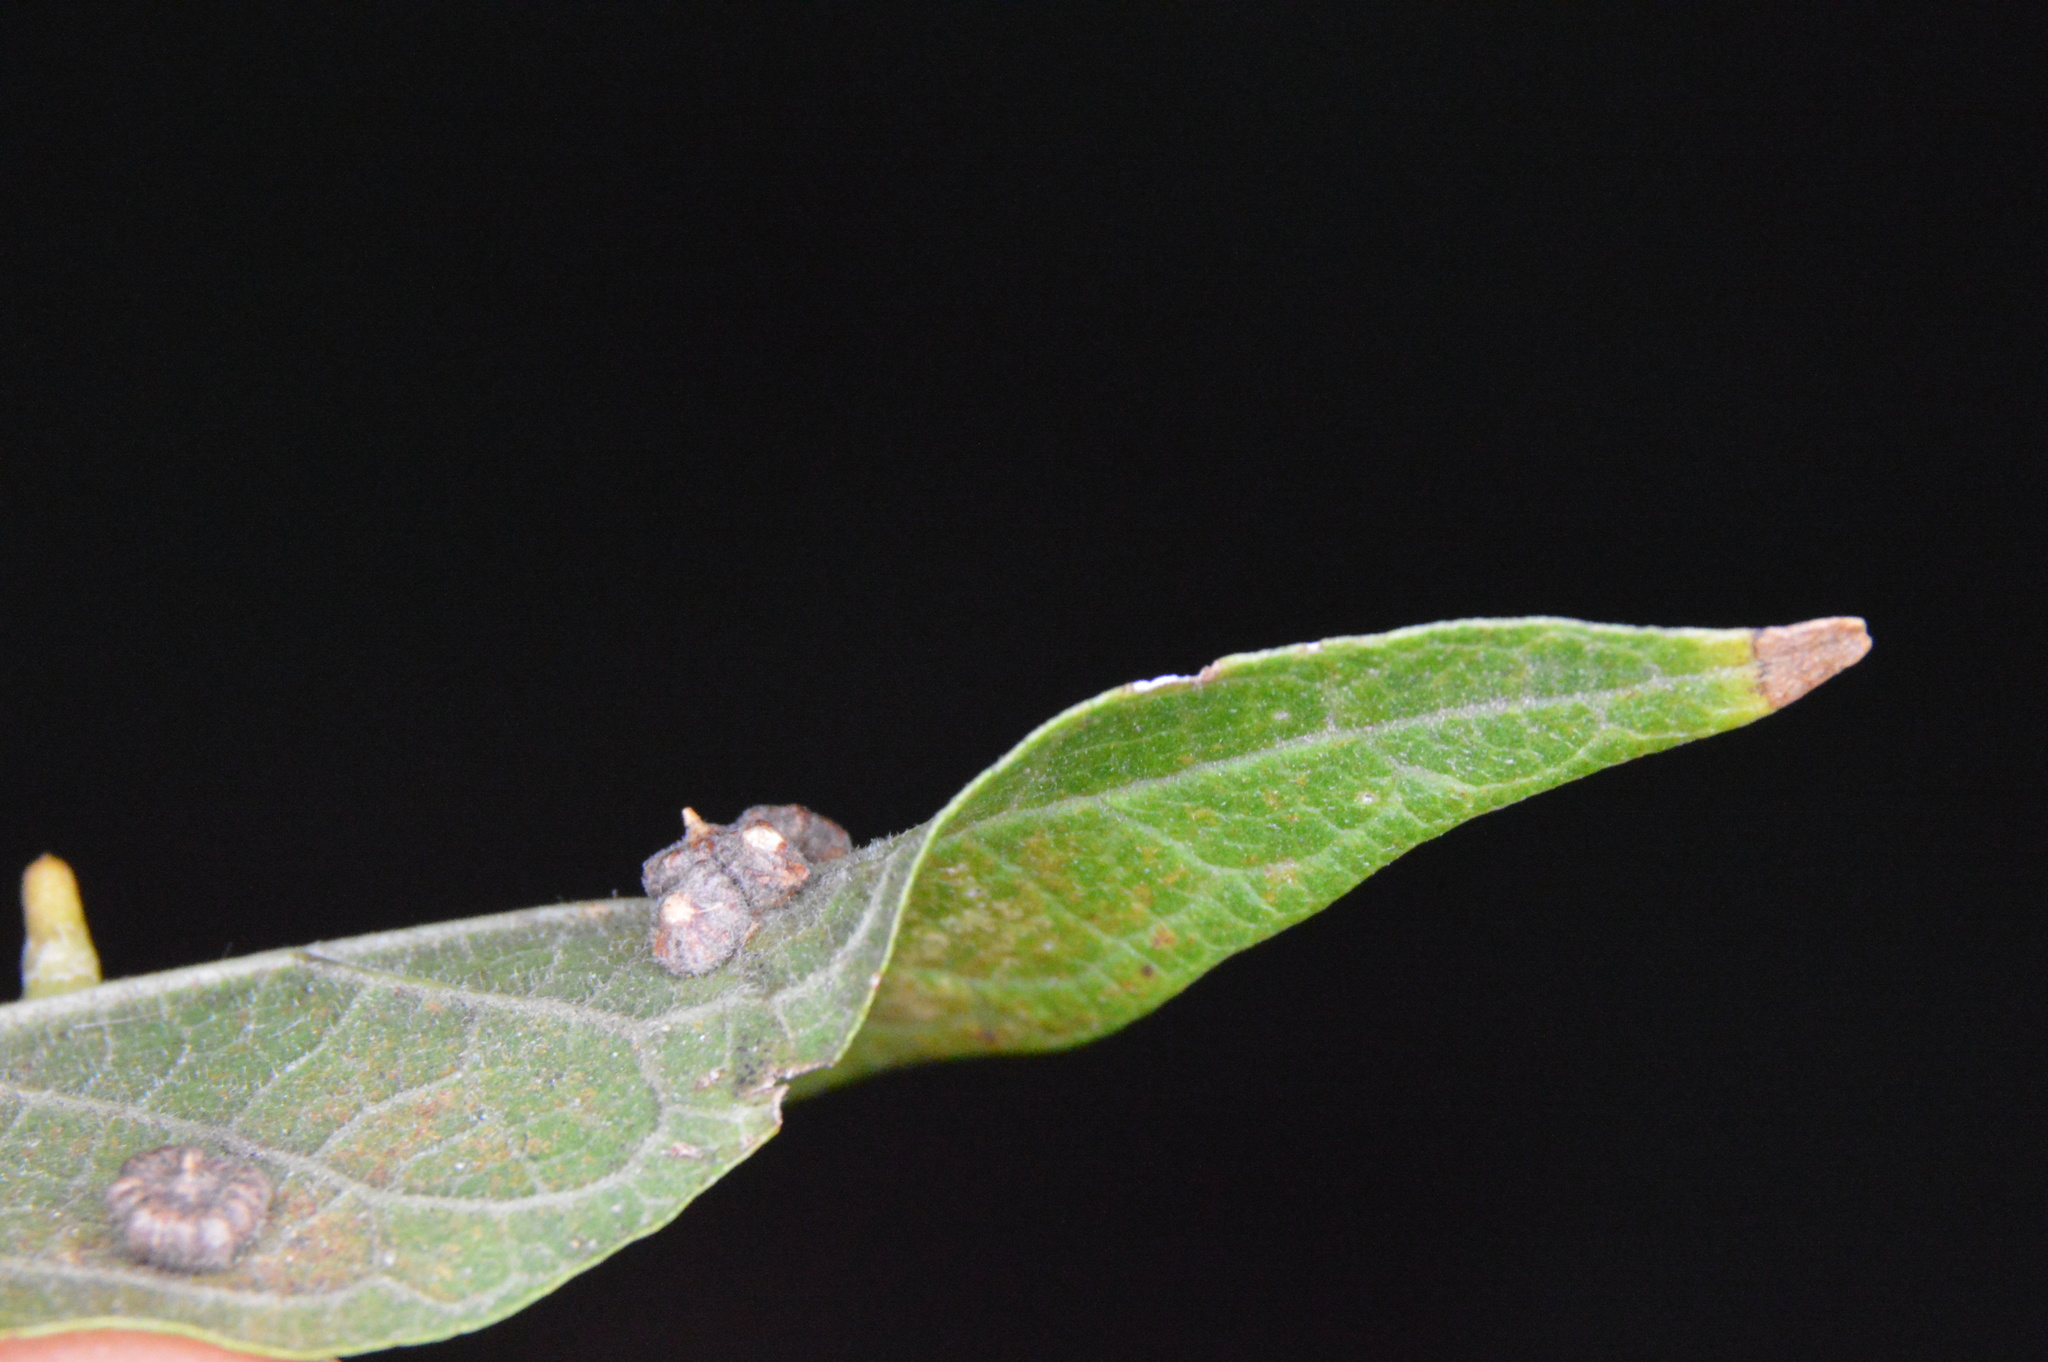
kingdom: Animalia
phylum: Arthropoda
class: Insecta
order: Diptera
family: Cecidomyiidae
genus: Celticecis
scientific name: Celticecis capsularis
